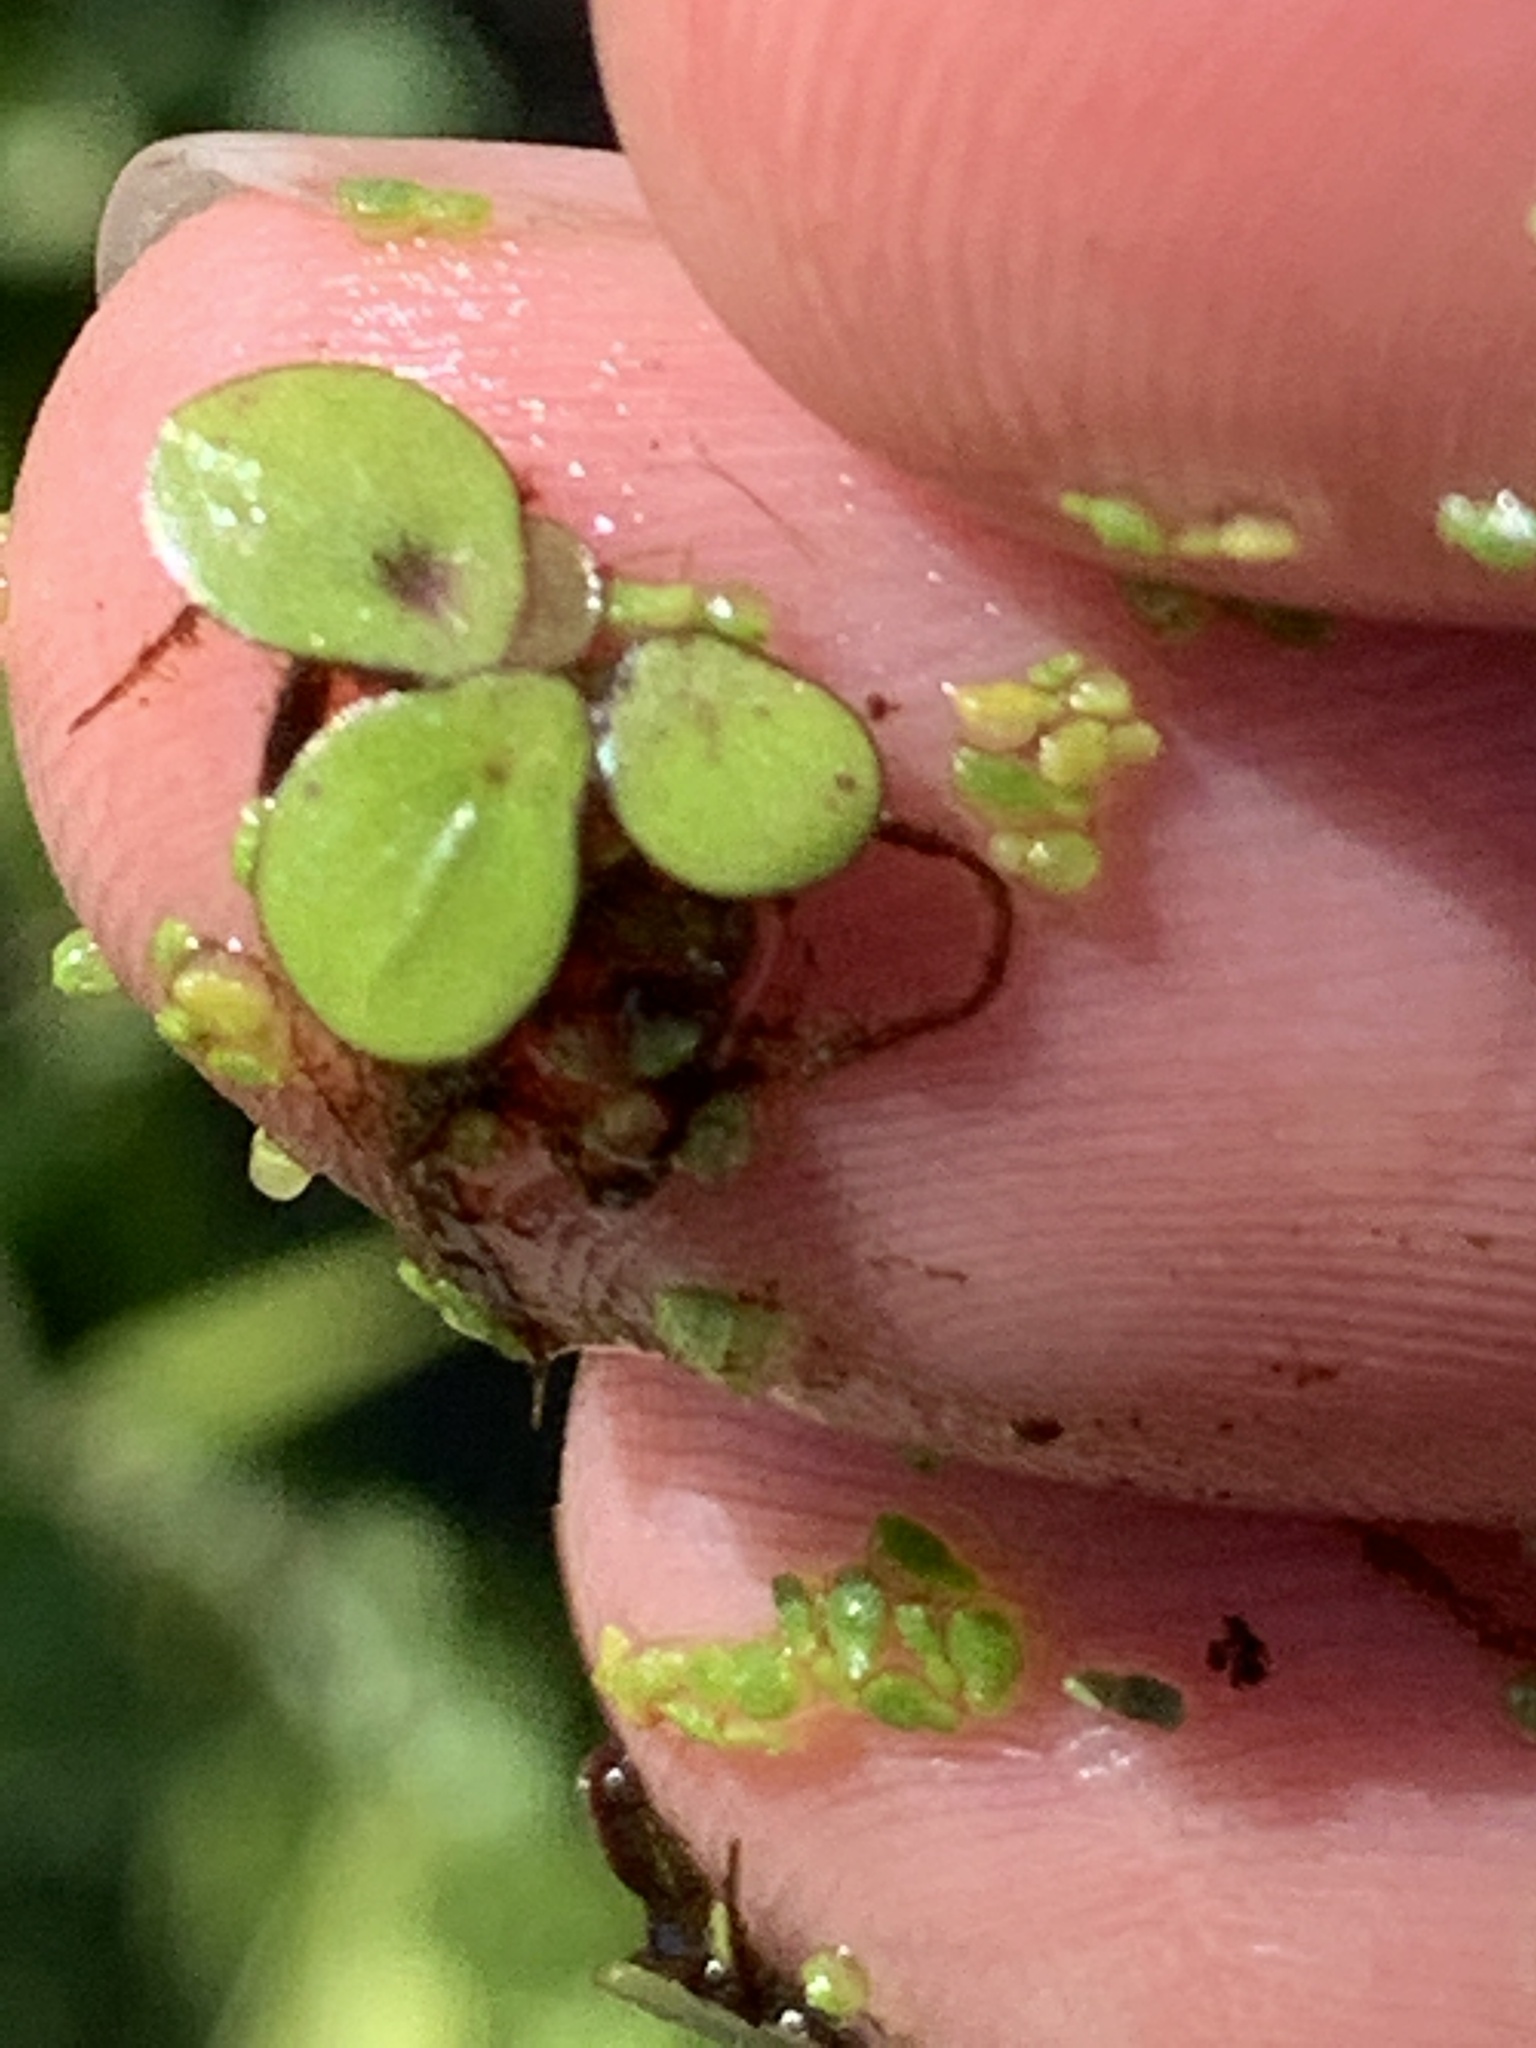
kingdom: Plantae
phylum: Tracheophyta
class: Liliopsida
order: Alismatales
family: Araceae
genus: Spirodela
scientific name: Spirodela polyrhiza
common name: Great duckweed
